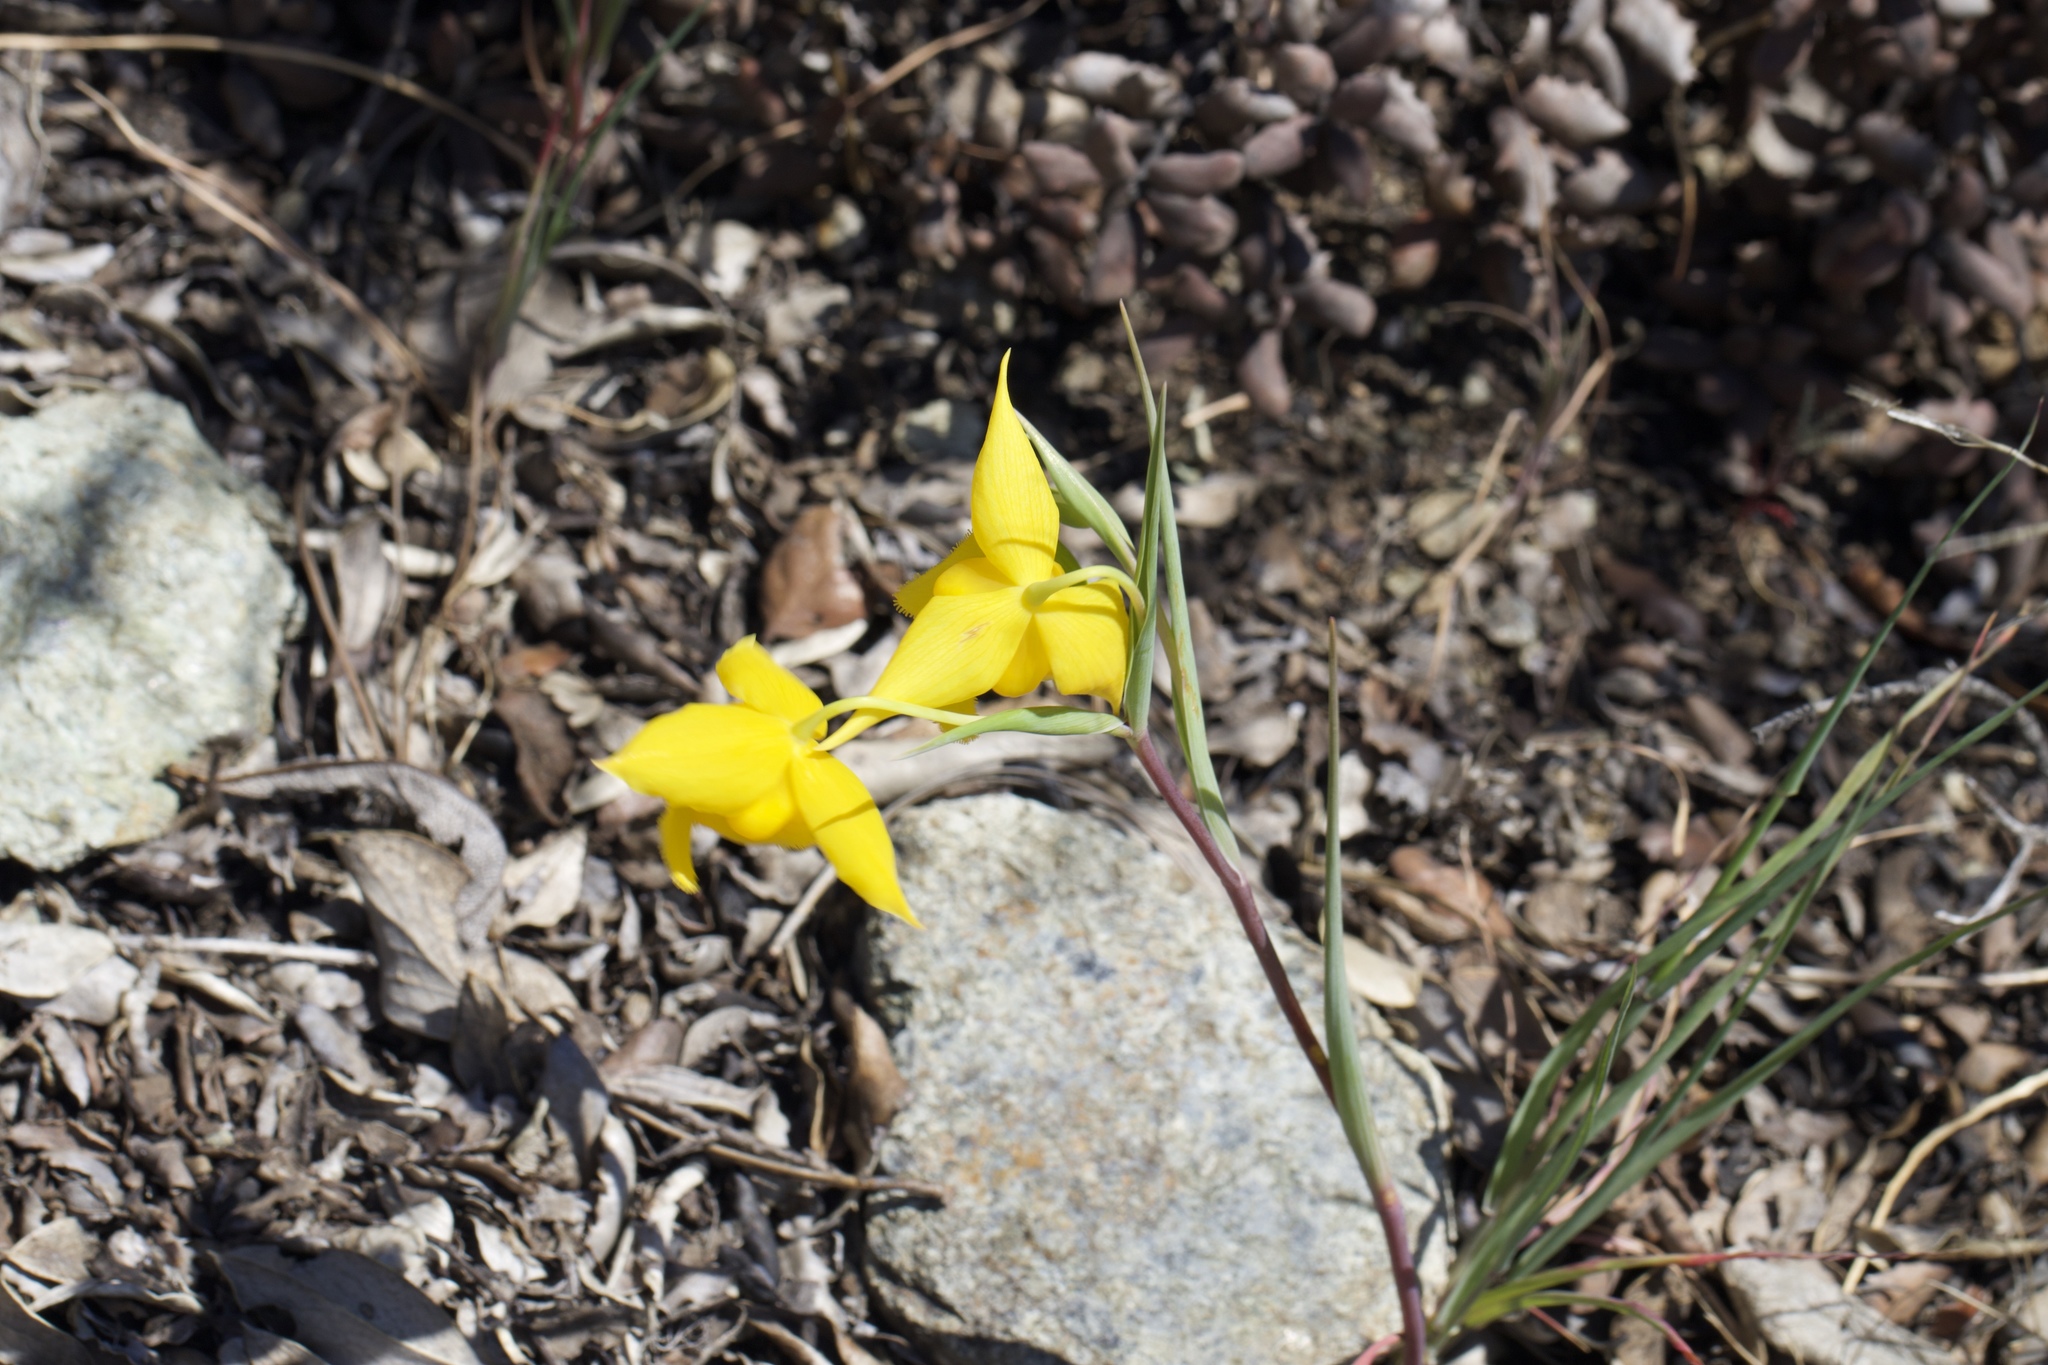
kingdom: Plantae
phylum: Tracheophyta
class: Liliopsida
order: Liliales
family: Liliaceae
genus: Calochortus
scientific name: Calochortus amabilis
